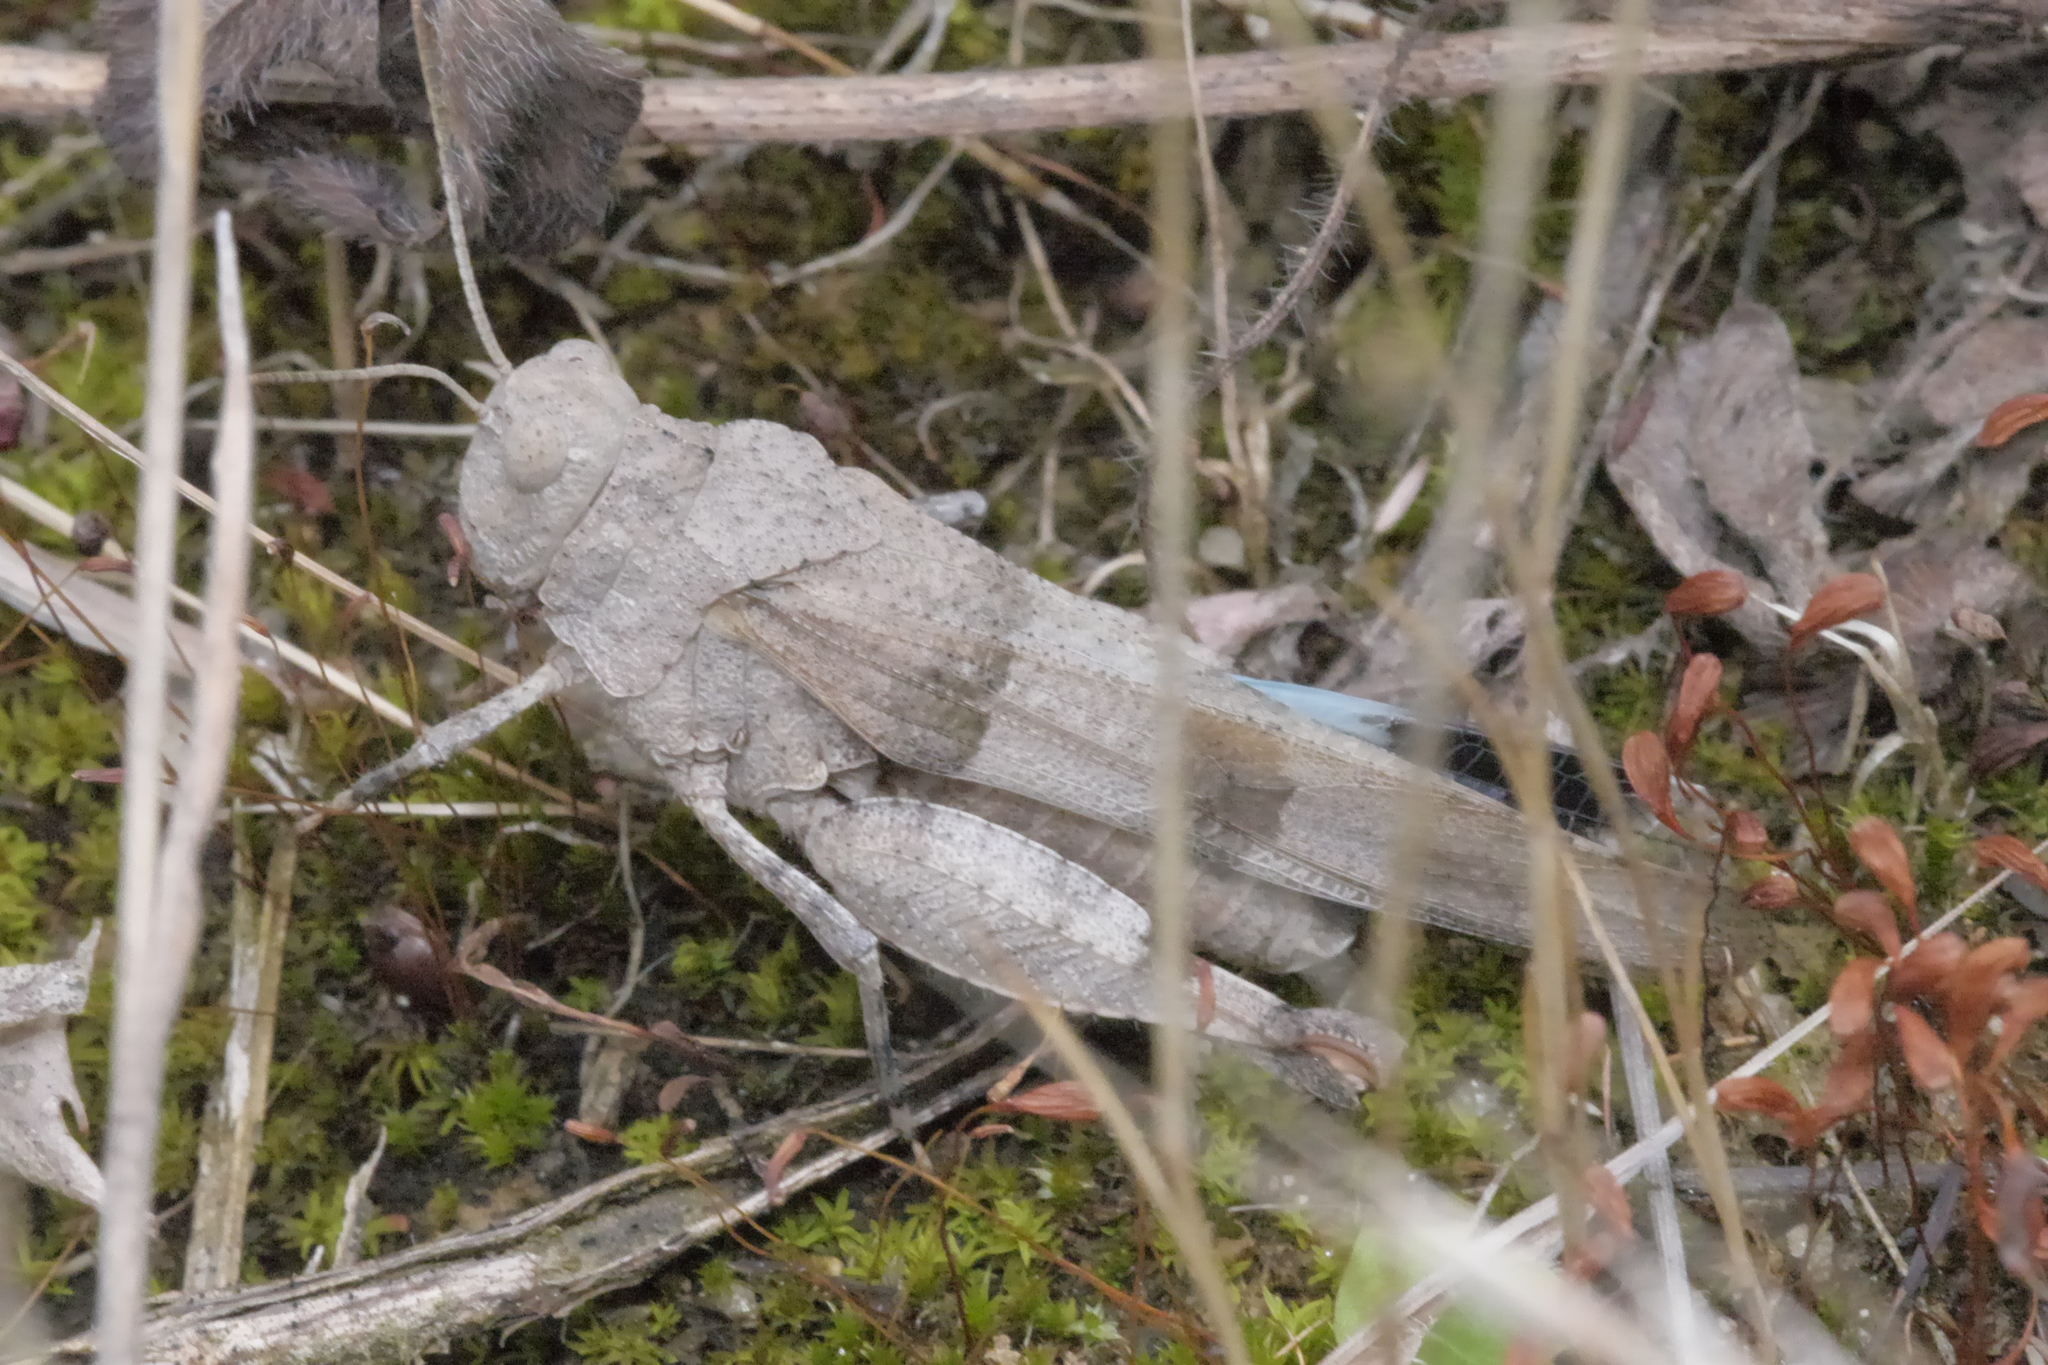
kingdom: Animalia
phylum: Arthropoda
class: Insecta
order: Orthoptera
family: Acrididae
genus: Oedipoda
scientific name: Oedipoda caerulescens
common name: Blue-winged grasshopper
